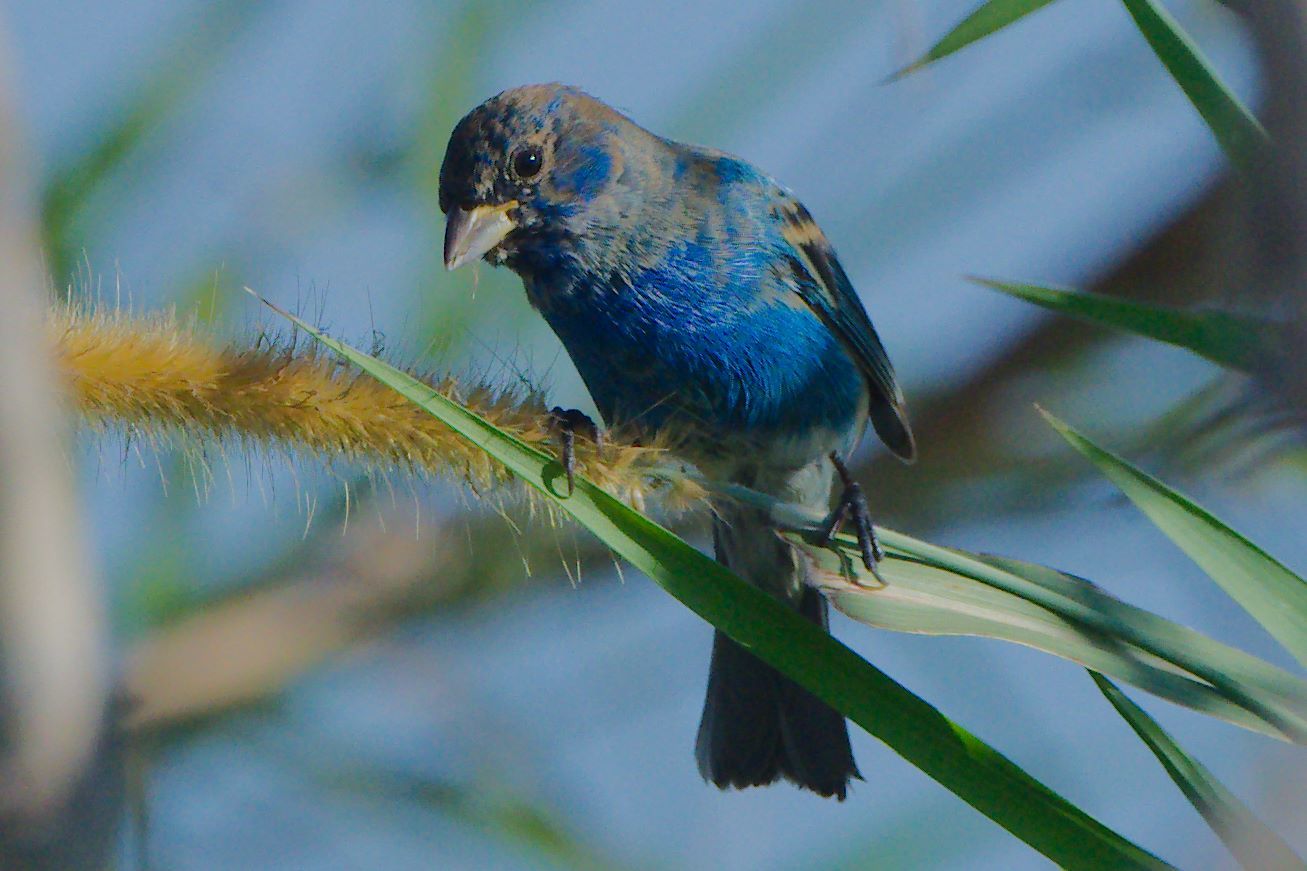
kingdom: Animalia
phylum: Chordata
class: Aves
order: Passeriformes
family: Cardinalidae
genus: Passerina
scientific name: Passerina cyanea
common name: Indigo bunting
